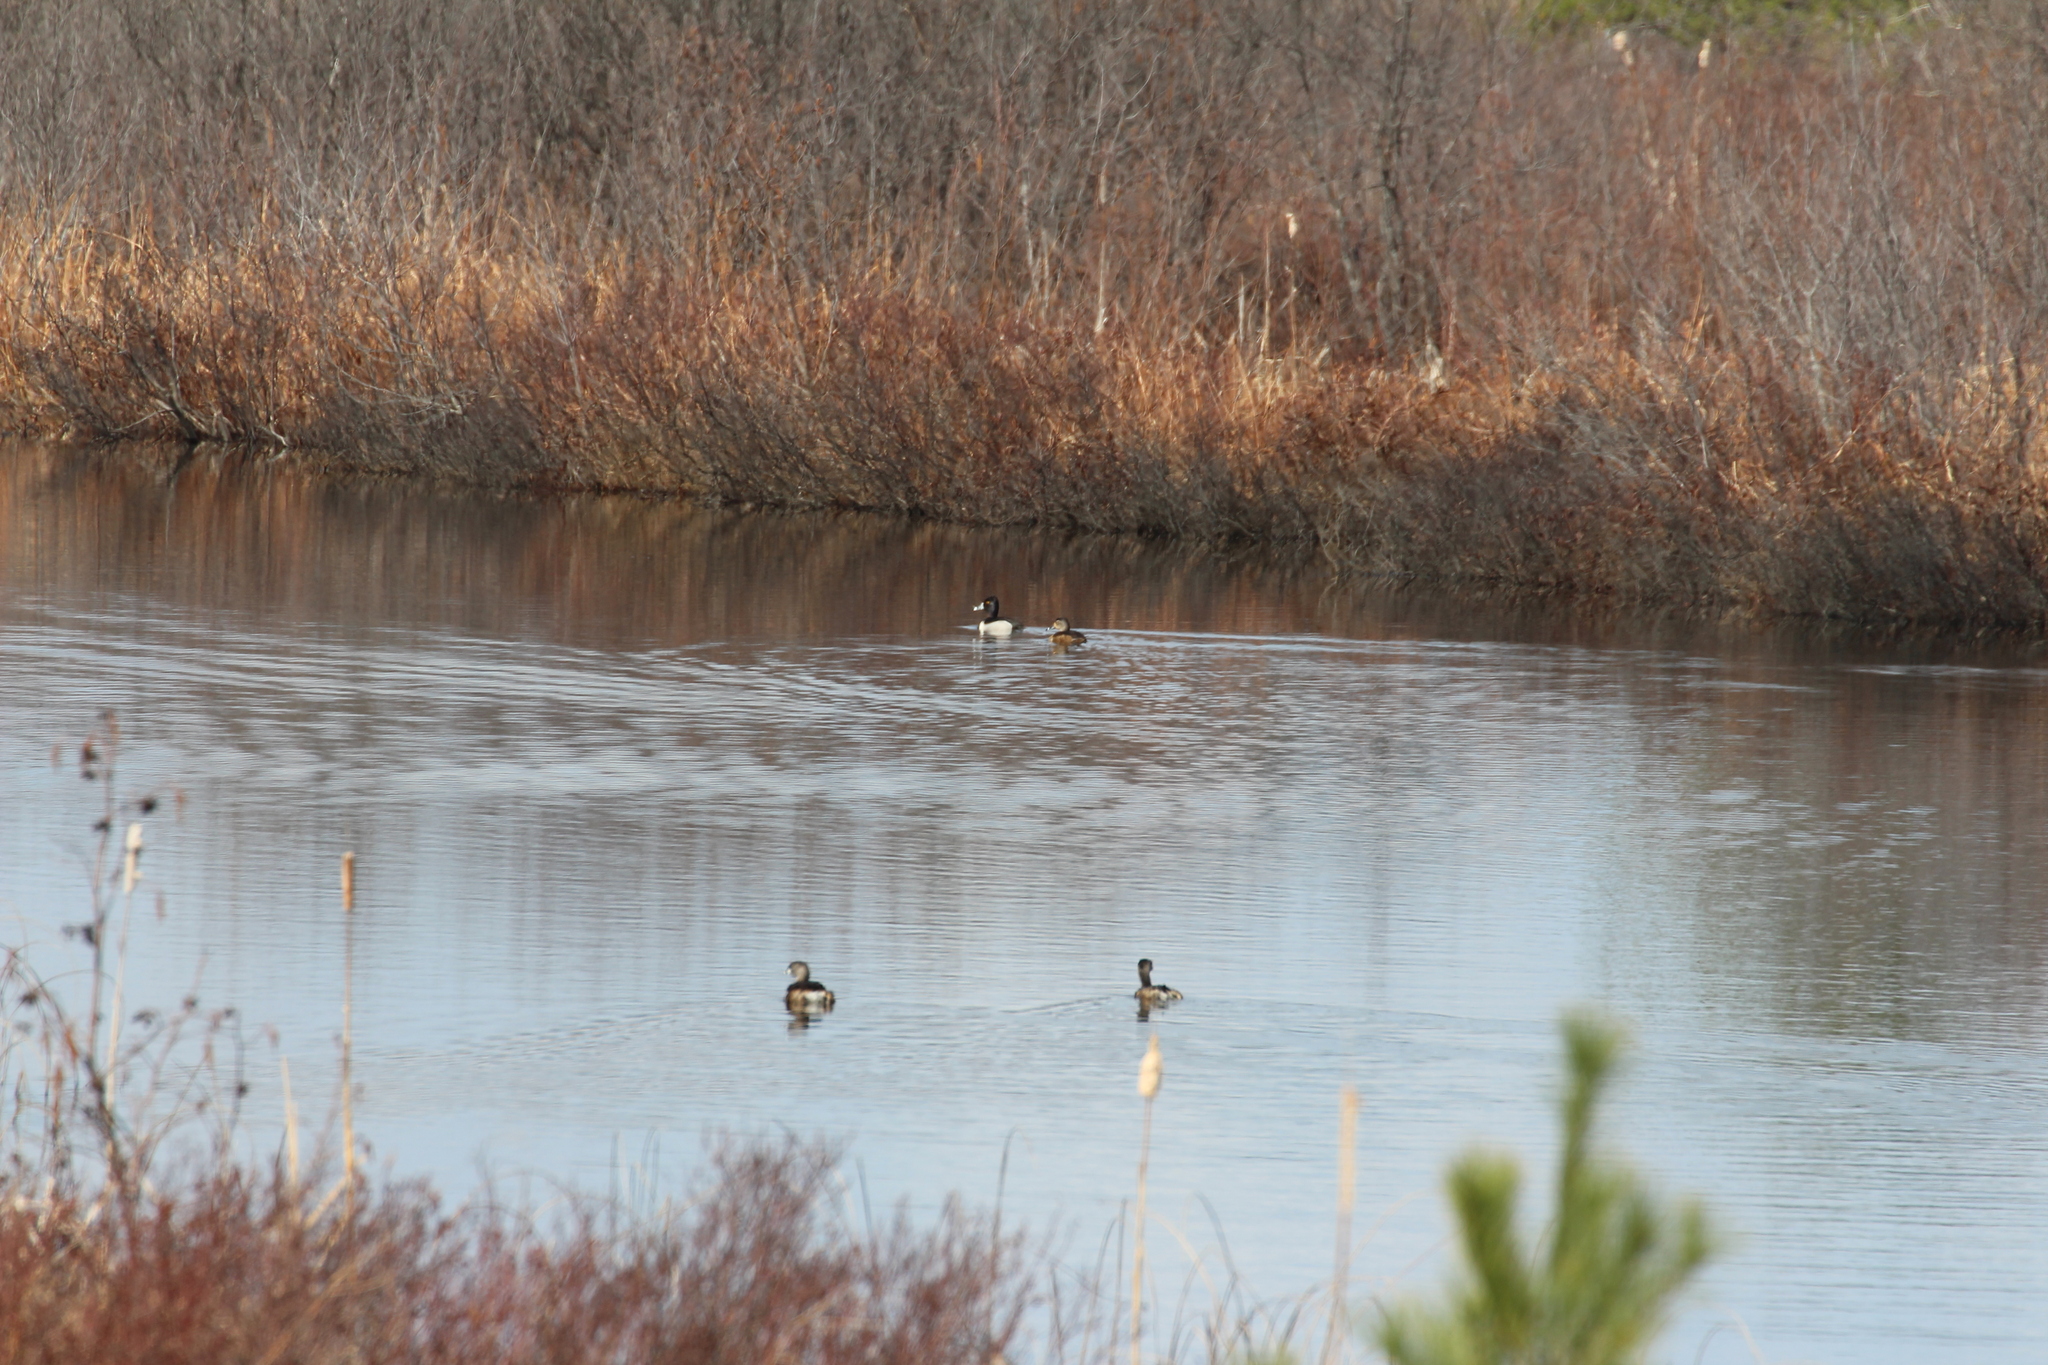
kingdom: Animalia
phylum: Chordata
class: Aves
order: Anseriformes
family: Anatidae
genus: Aythya
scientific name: Aythya collaris
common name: Ring-necked duck
